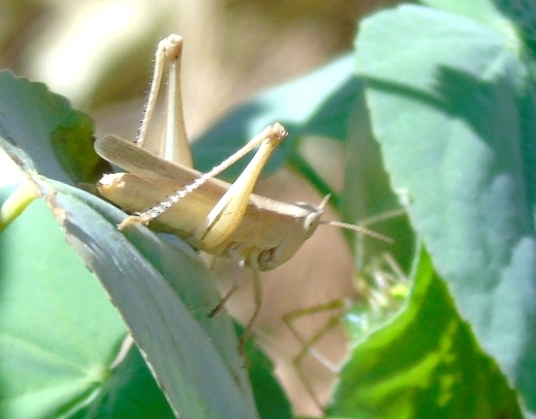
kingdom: Animalia
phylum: Arthropoda
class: Insecta
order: Orthoptera
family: Acrididae
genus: Dichromorpha
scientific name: Dichromorpha prominula
